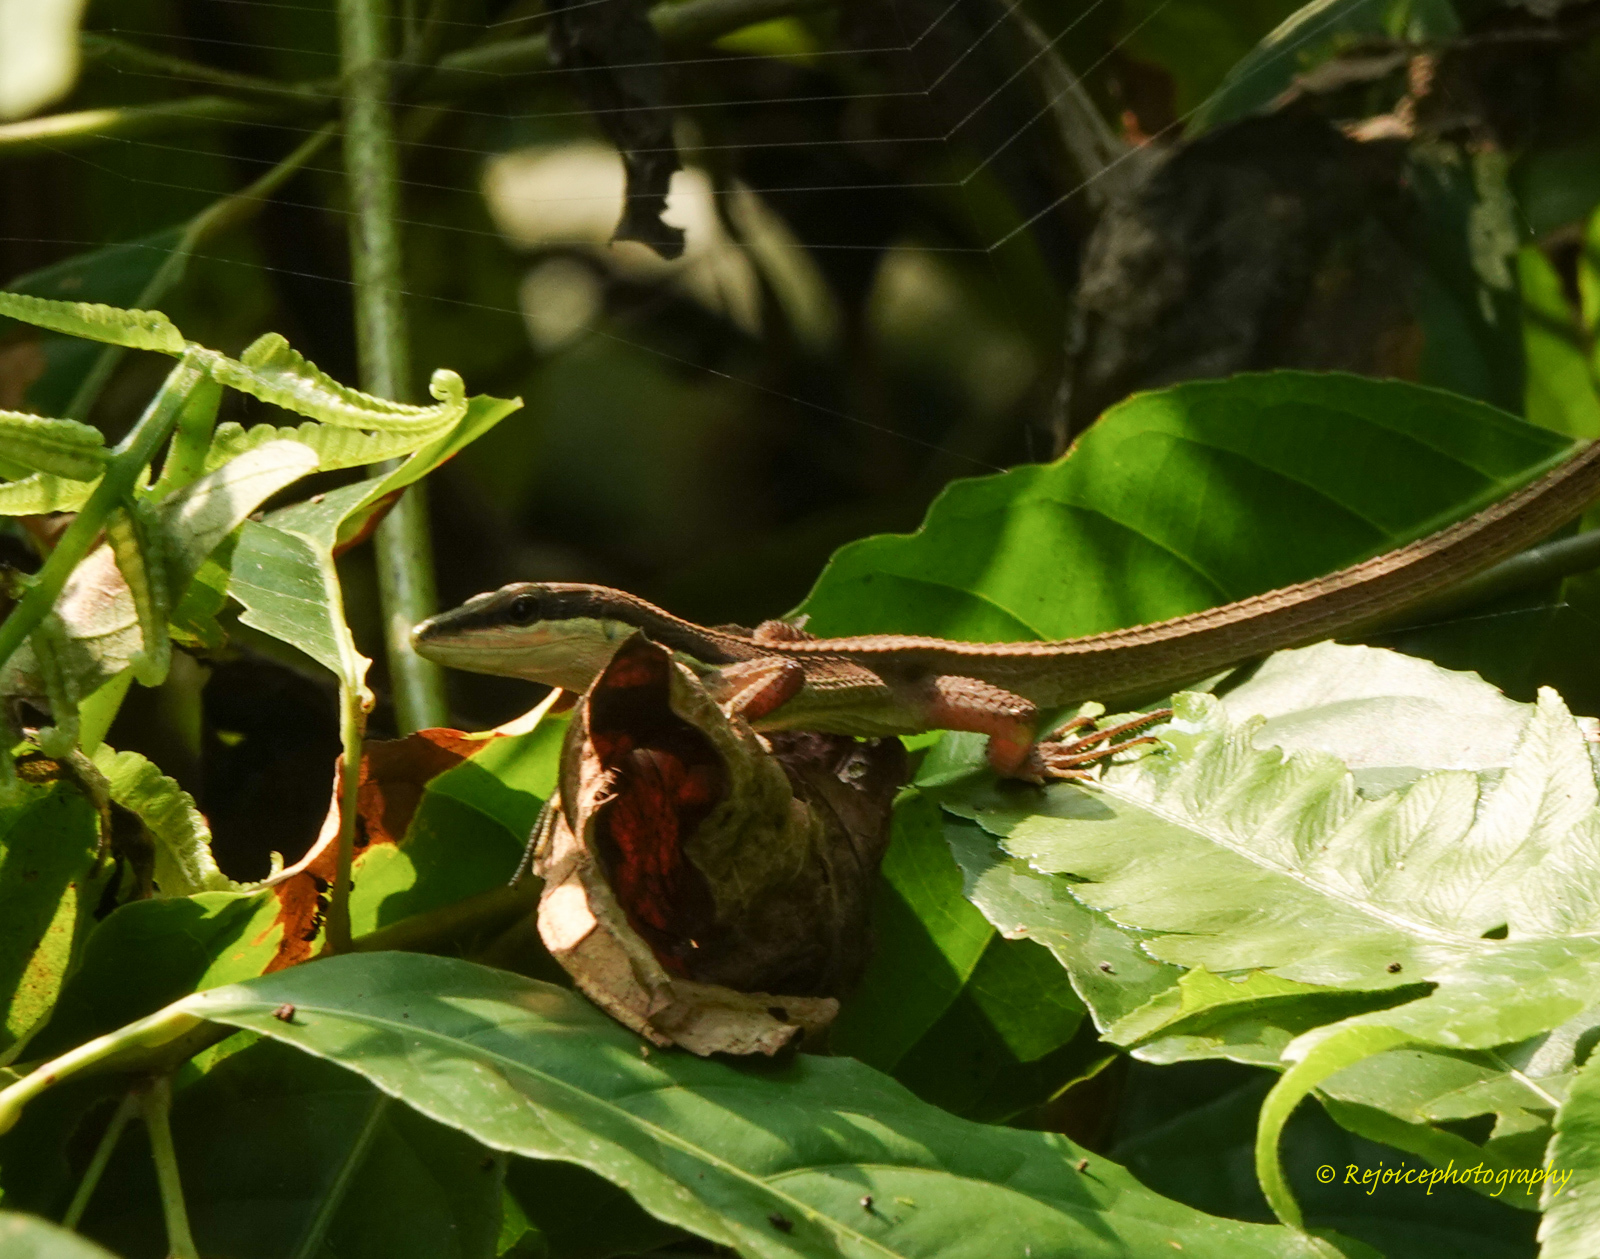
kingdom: Animalia
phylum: Chordata
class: Squamata
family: Lacertidae
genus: Takydromus
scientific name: Takydromus sexlineatus
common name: Asian grass lizard
